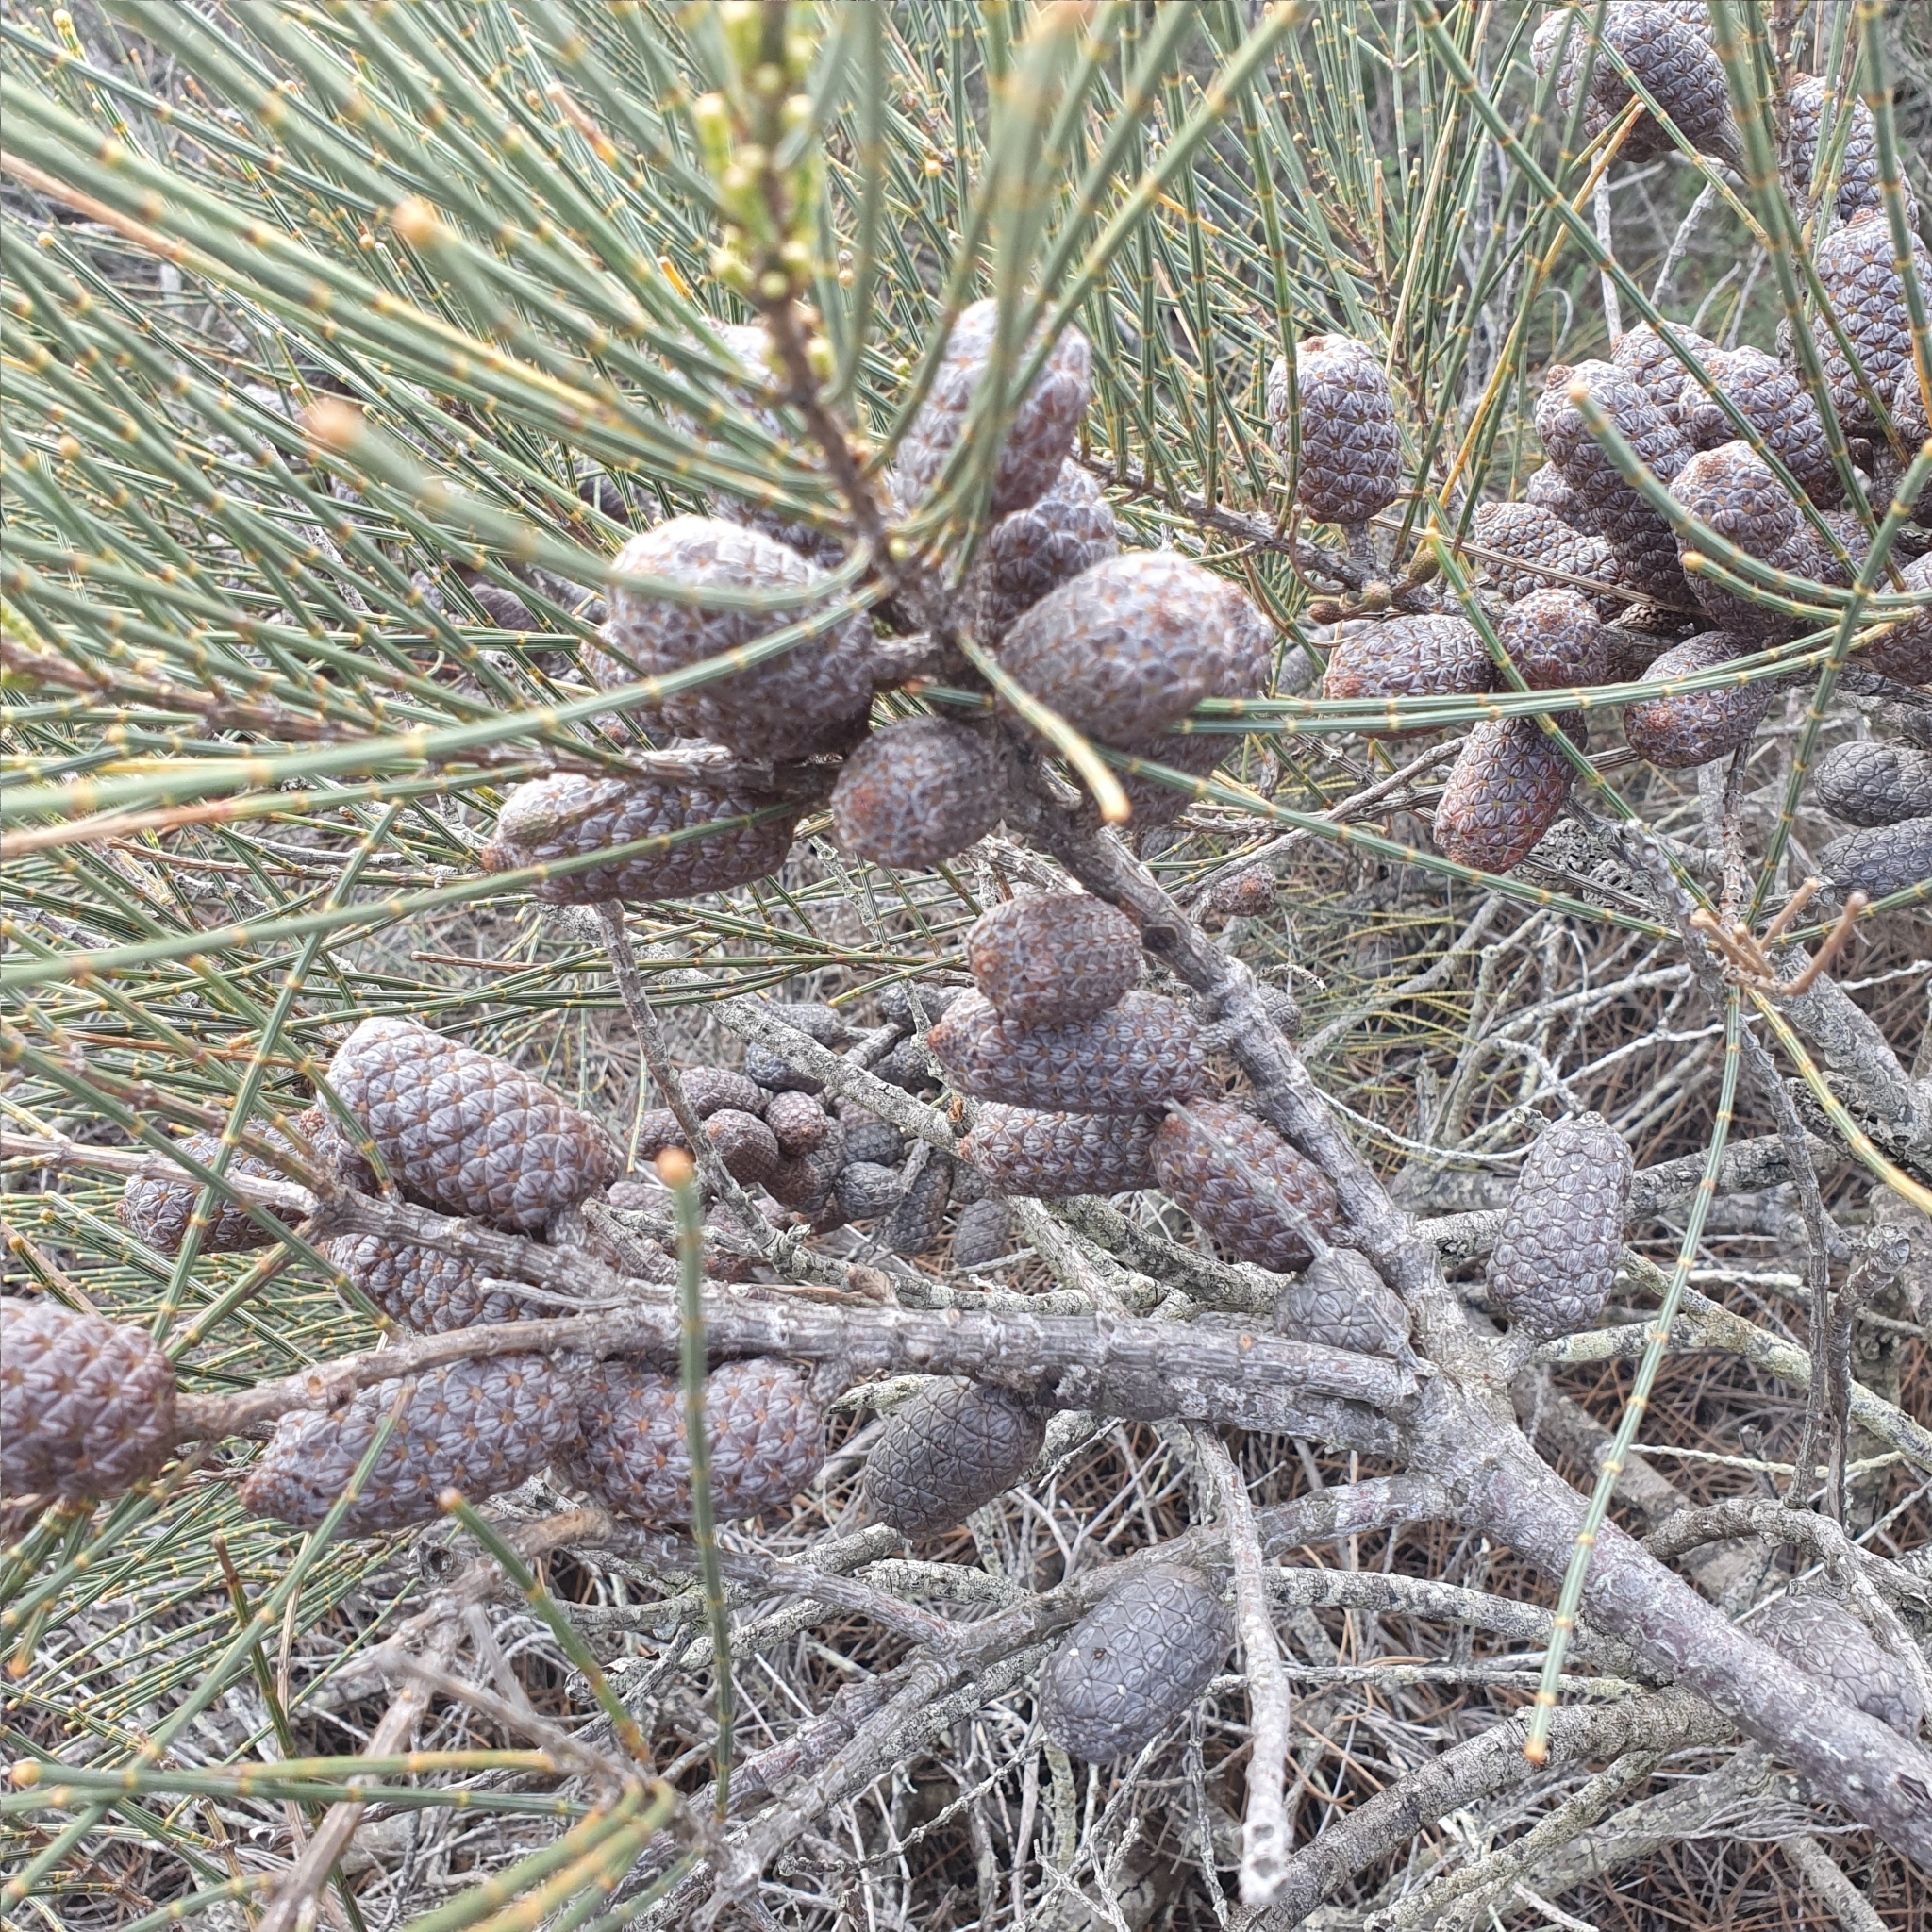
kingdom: Plantae
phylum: Tracheophyta
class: Magnoliopsida
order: Fagales
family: Casuarinaceae
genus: Allocasuarina
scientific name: Allocasuarina distyla
